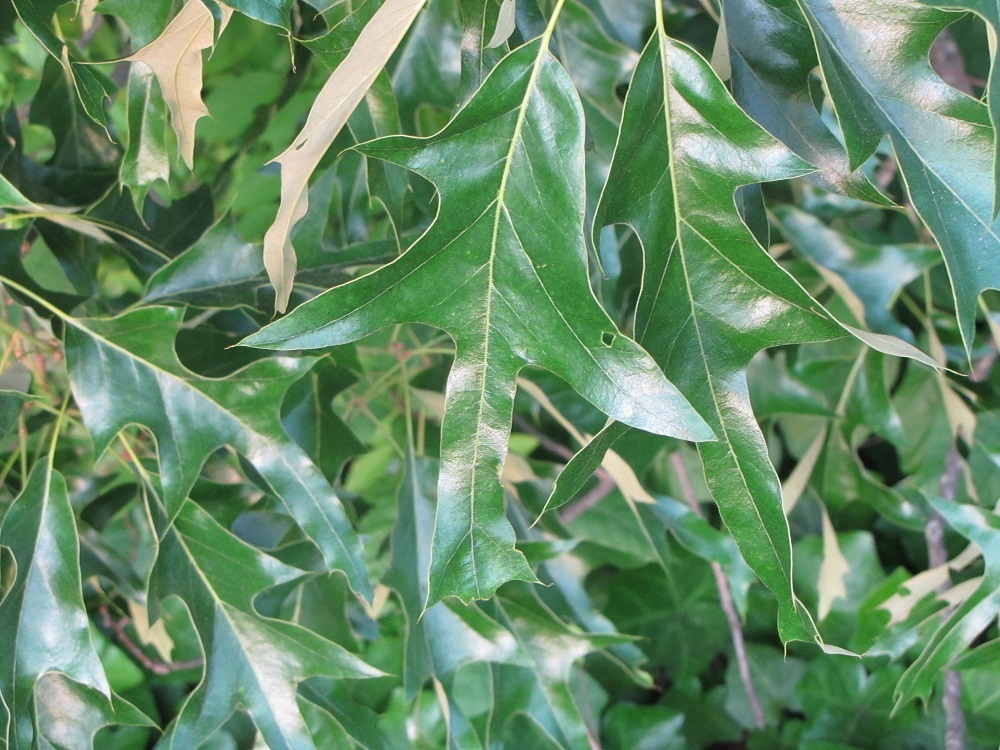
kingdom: Plantae
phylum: Tracheophyta
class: Magnoliopsida
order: Fagales
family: Fagaceae
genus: Quercus
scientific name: Quercus falcata
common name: Southern red oak
